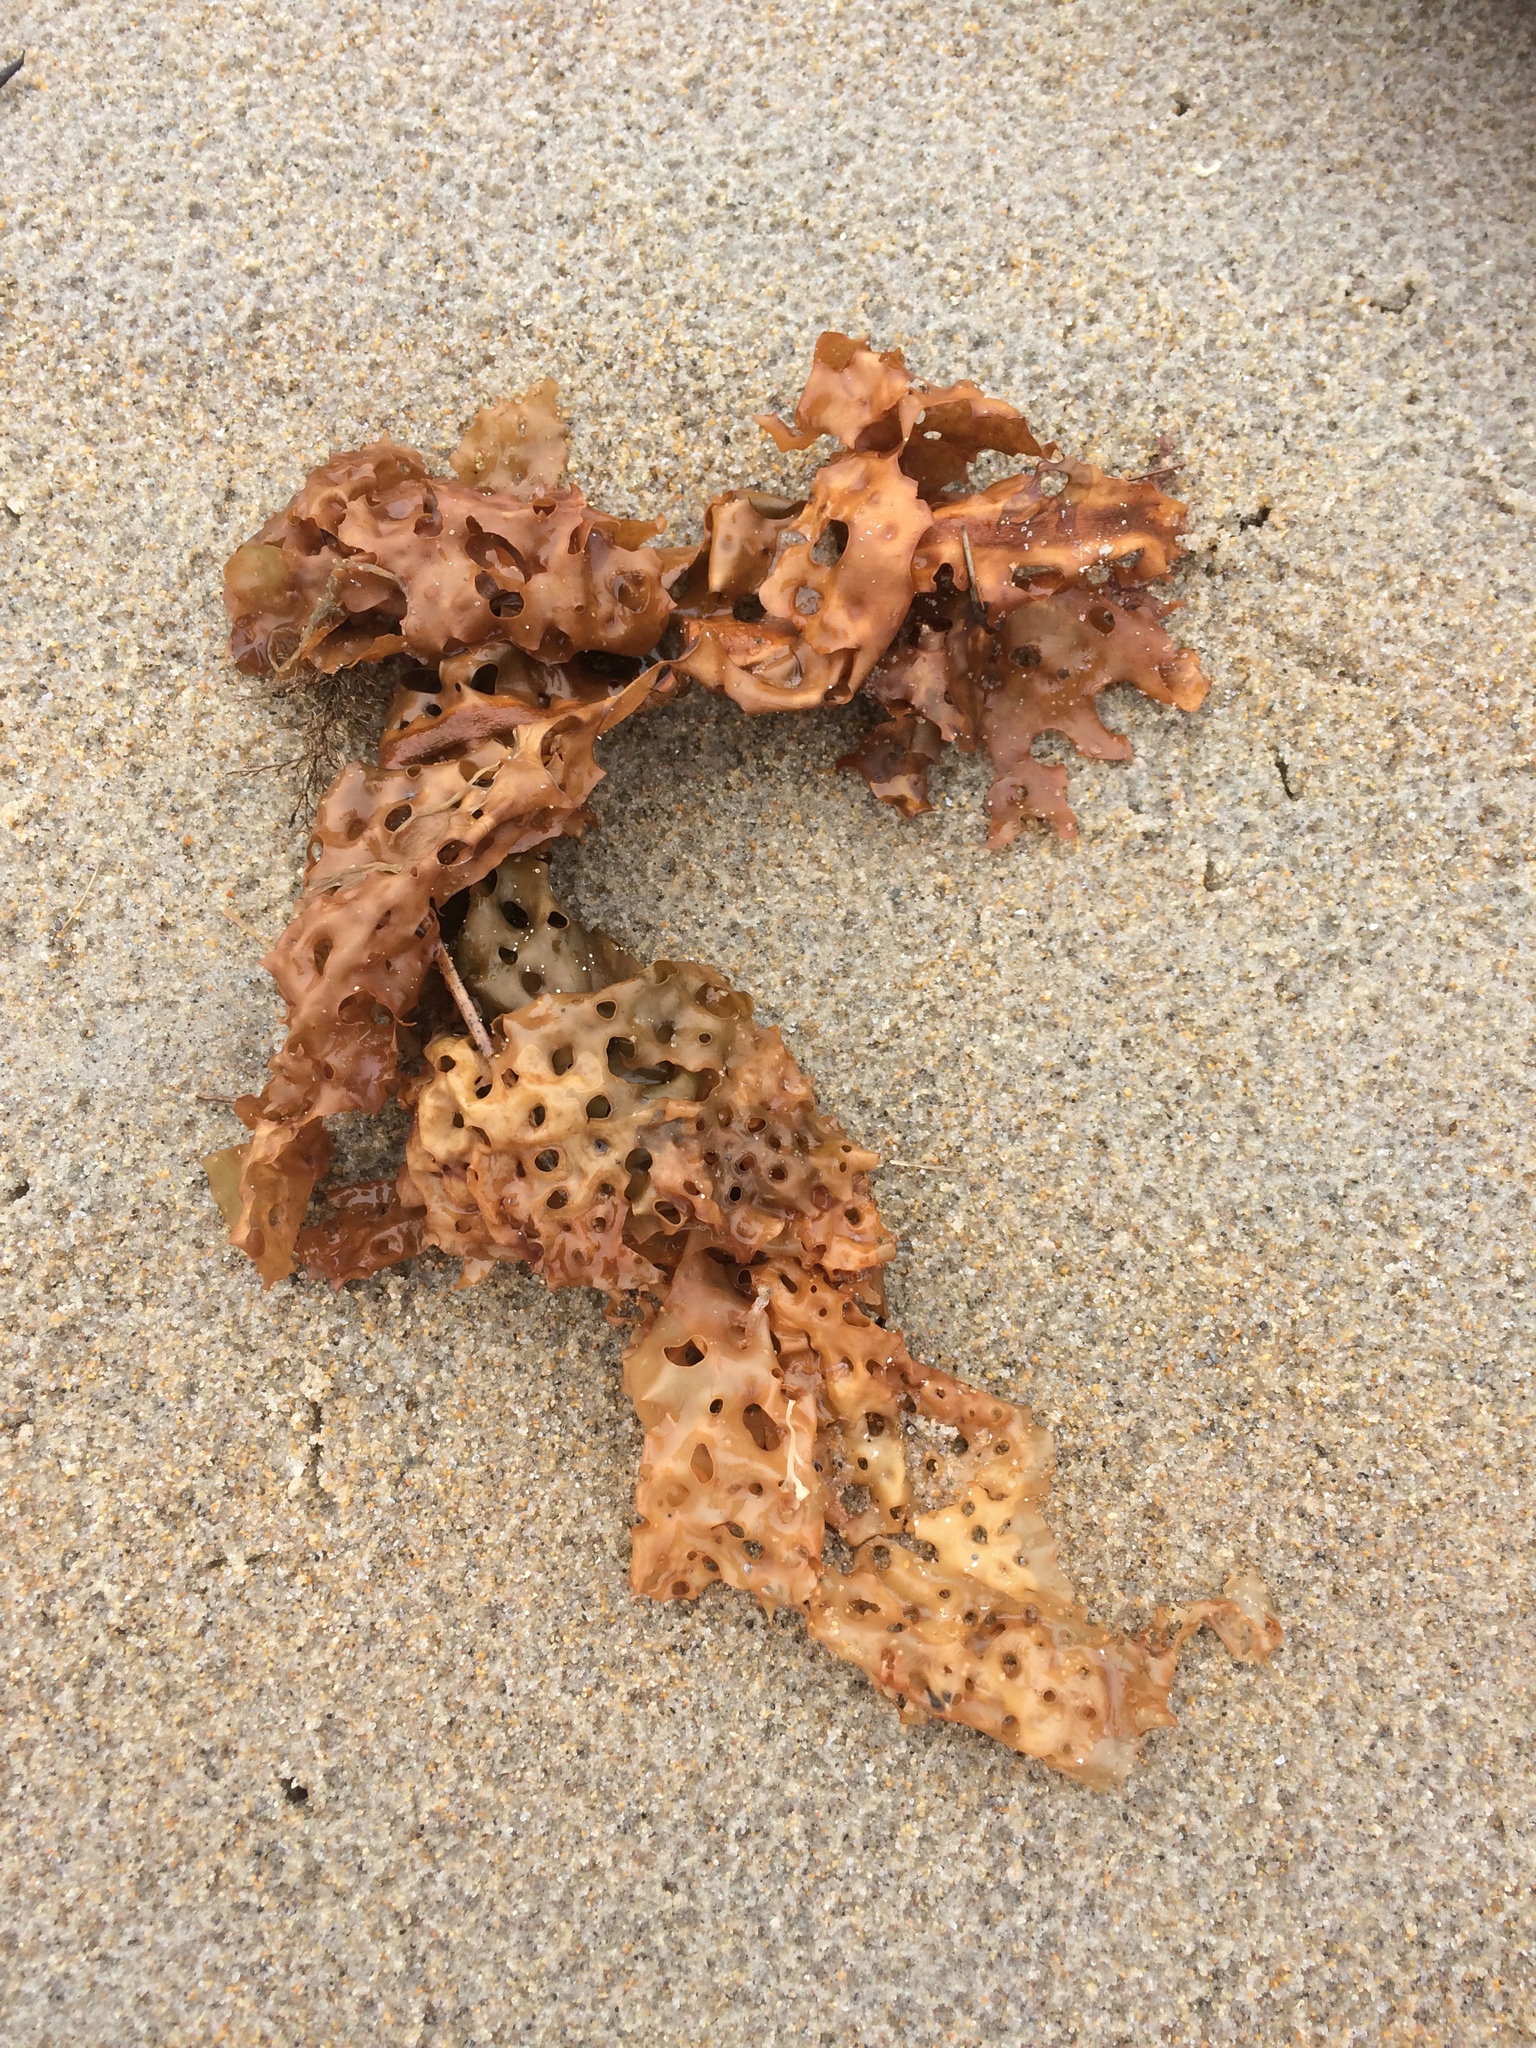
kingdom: Chromista
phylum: Ochrophyta
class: Phaeophyceae
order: Laminariales
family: Costariaceae
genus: Agarum
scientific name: Agarum clathratum
